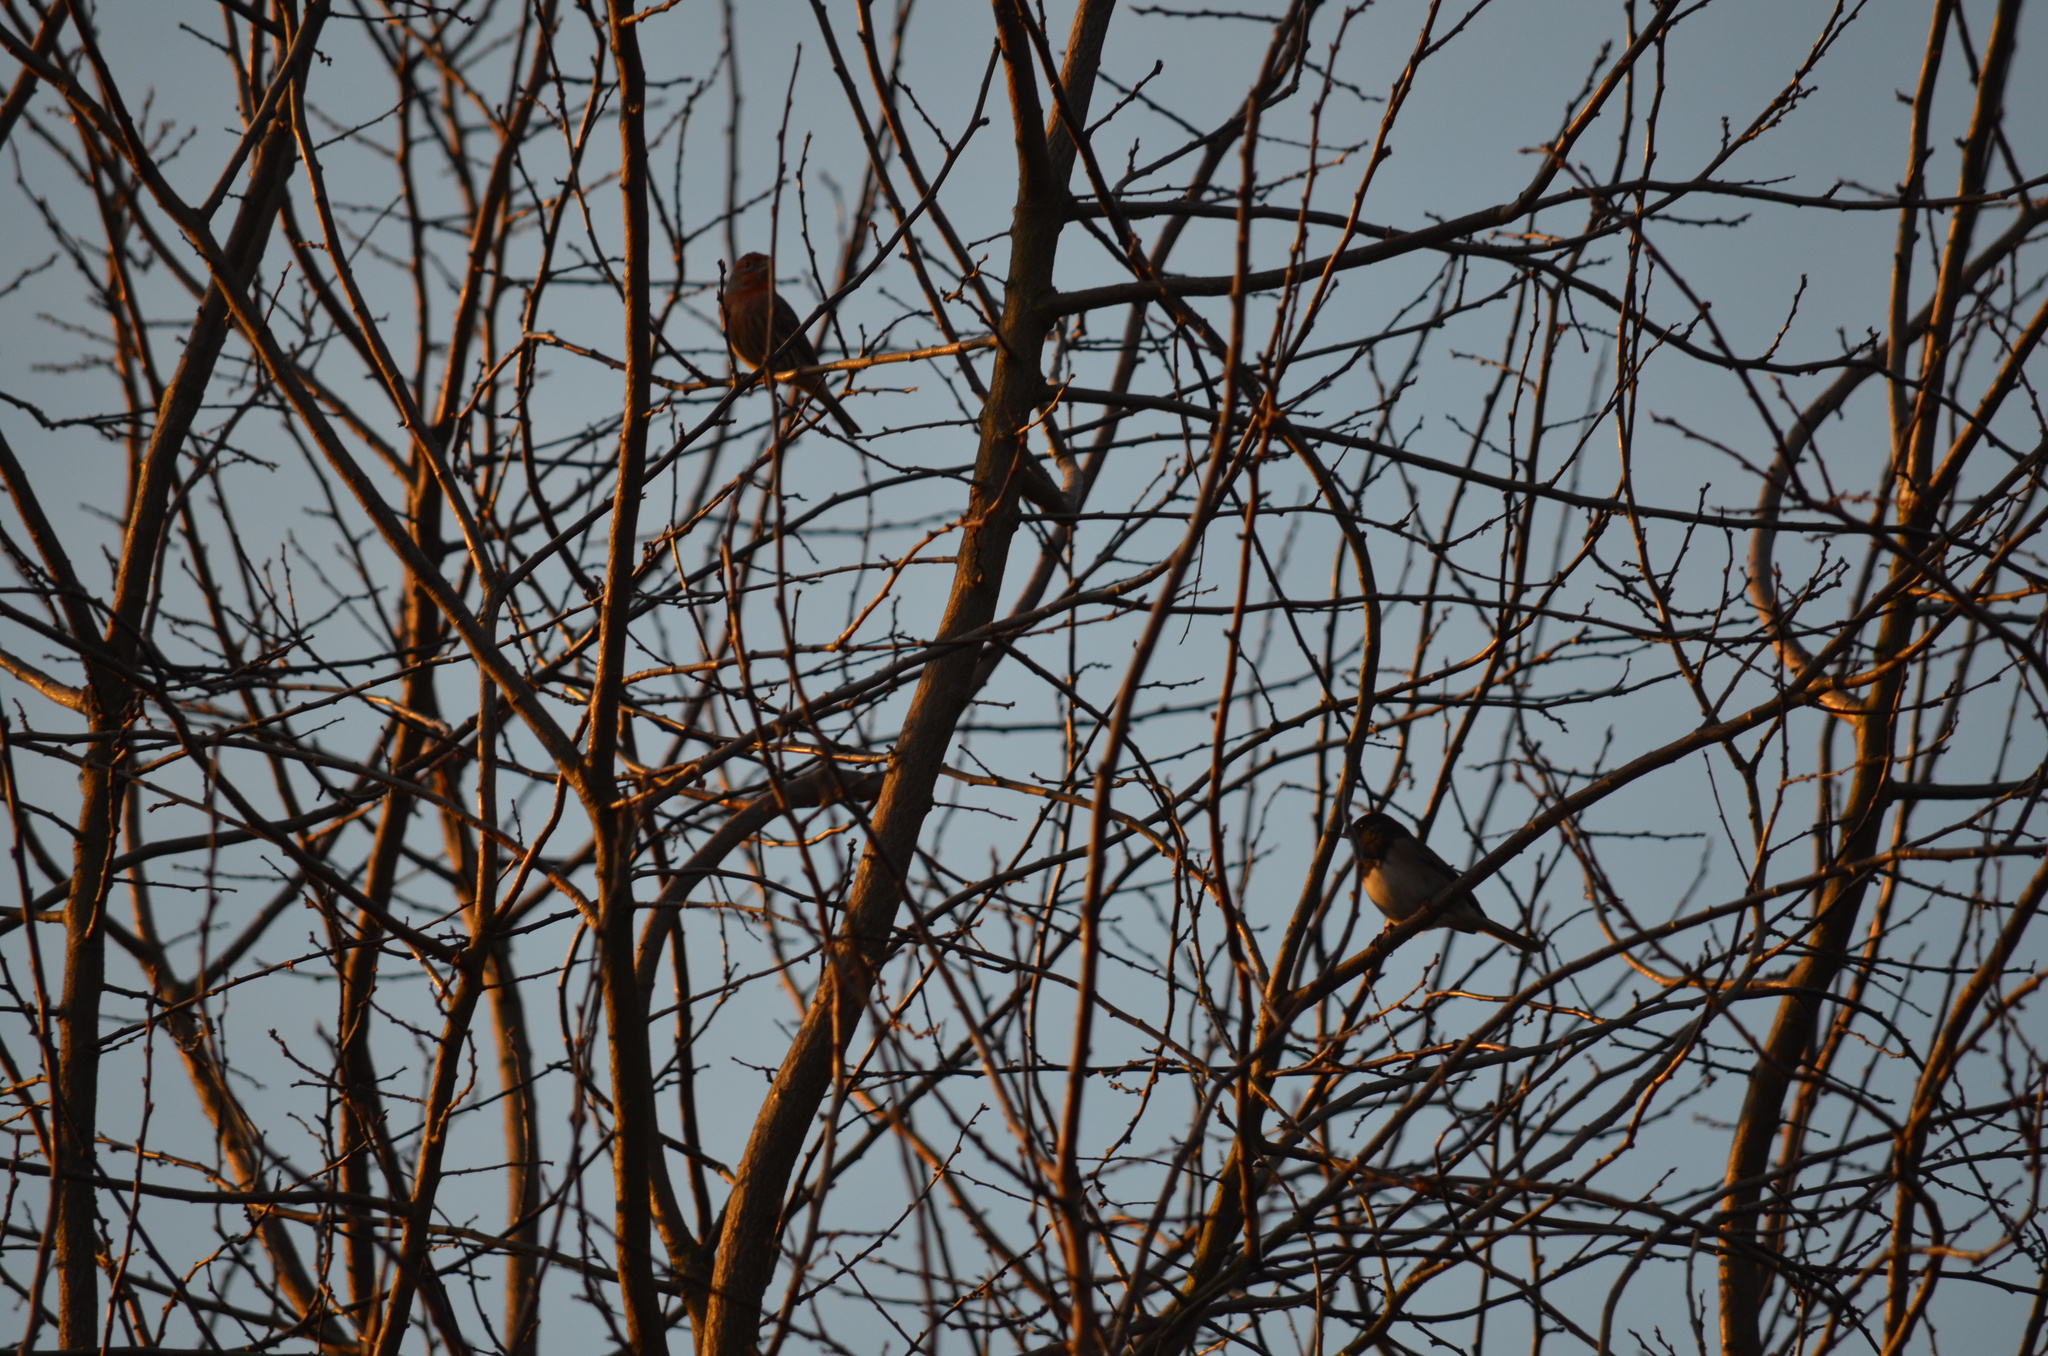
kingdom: Animalia
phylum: Chordata
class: Aves
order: Passeriformes
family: Passerellidae
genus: Junco
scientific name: Junco hyemalis
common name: Dark-eyed junco
